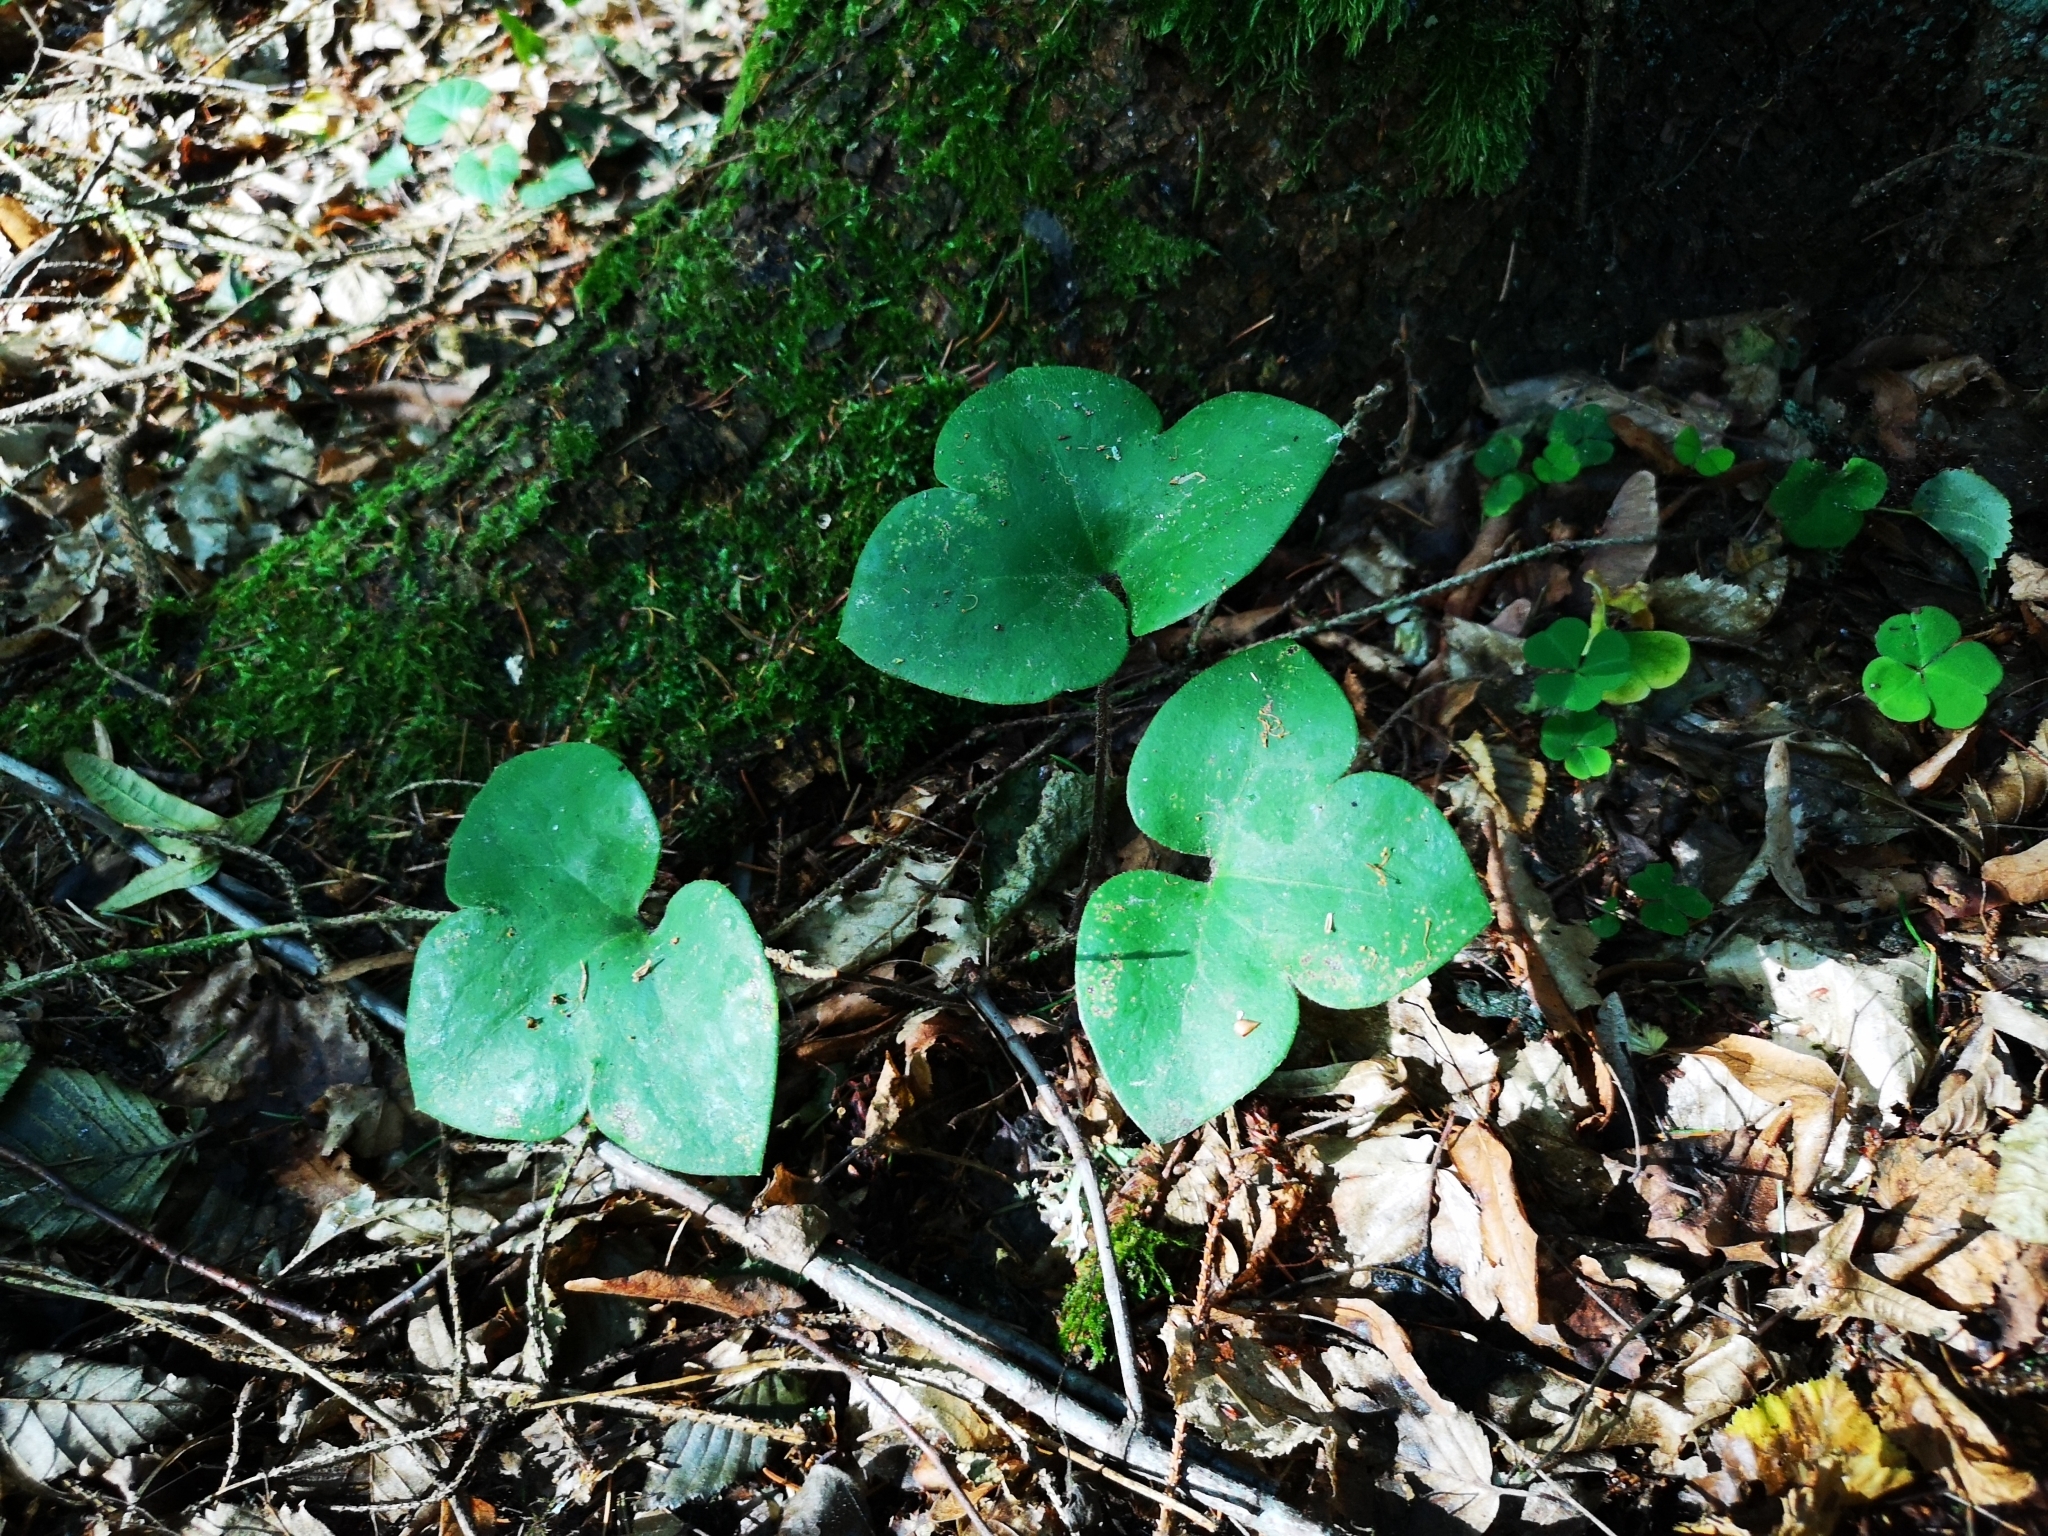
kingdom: Plantae
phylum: Tracheophyta
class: Magnoliopsida
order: Ranunculales
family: Ranunculaceae
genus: Hepatica
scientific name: Hepatica nobilis
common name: Liverleaf
